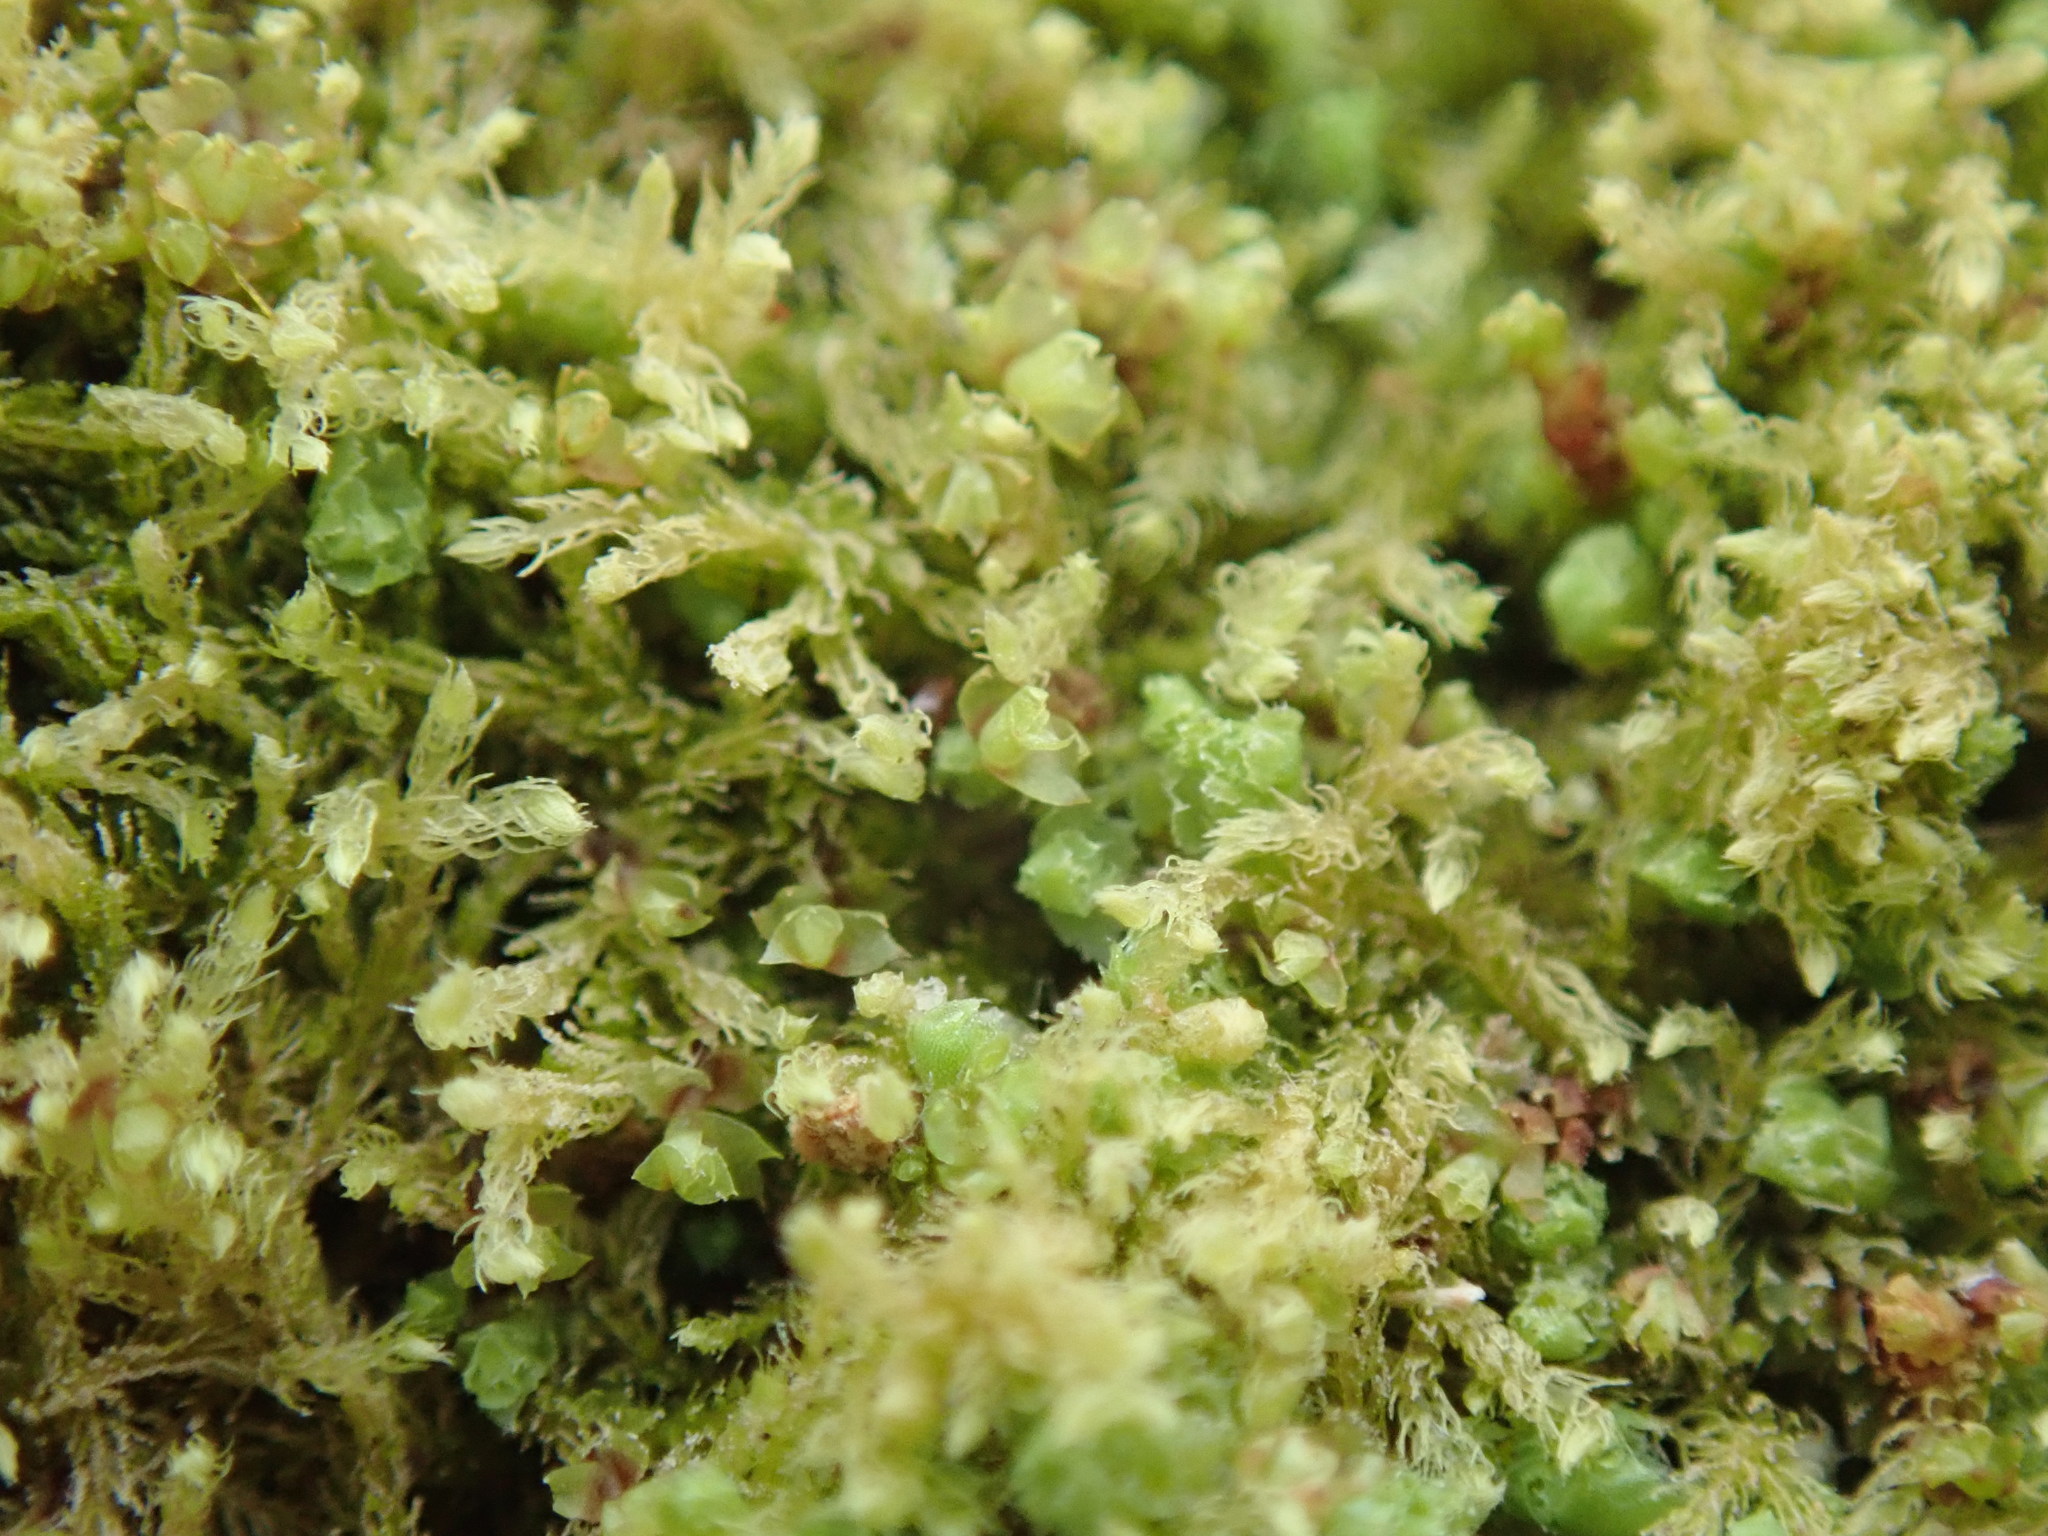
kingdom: Plantae
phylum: Marchantiophyta
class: Jungermanniopsida
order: Jungermanniales
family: Blepharostomataceae
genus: Blepharostoma
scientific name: Blepharostoma trichophyllum
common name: Hairy threadwort
